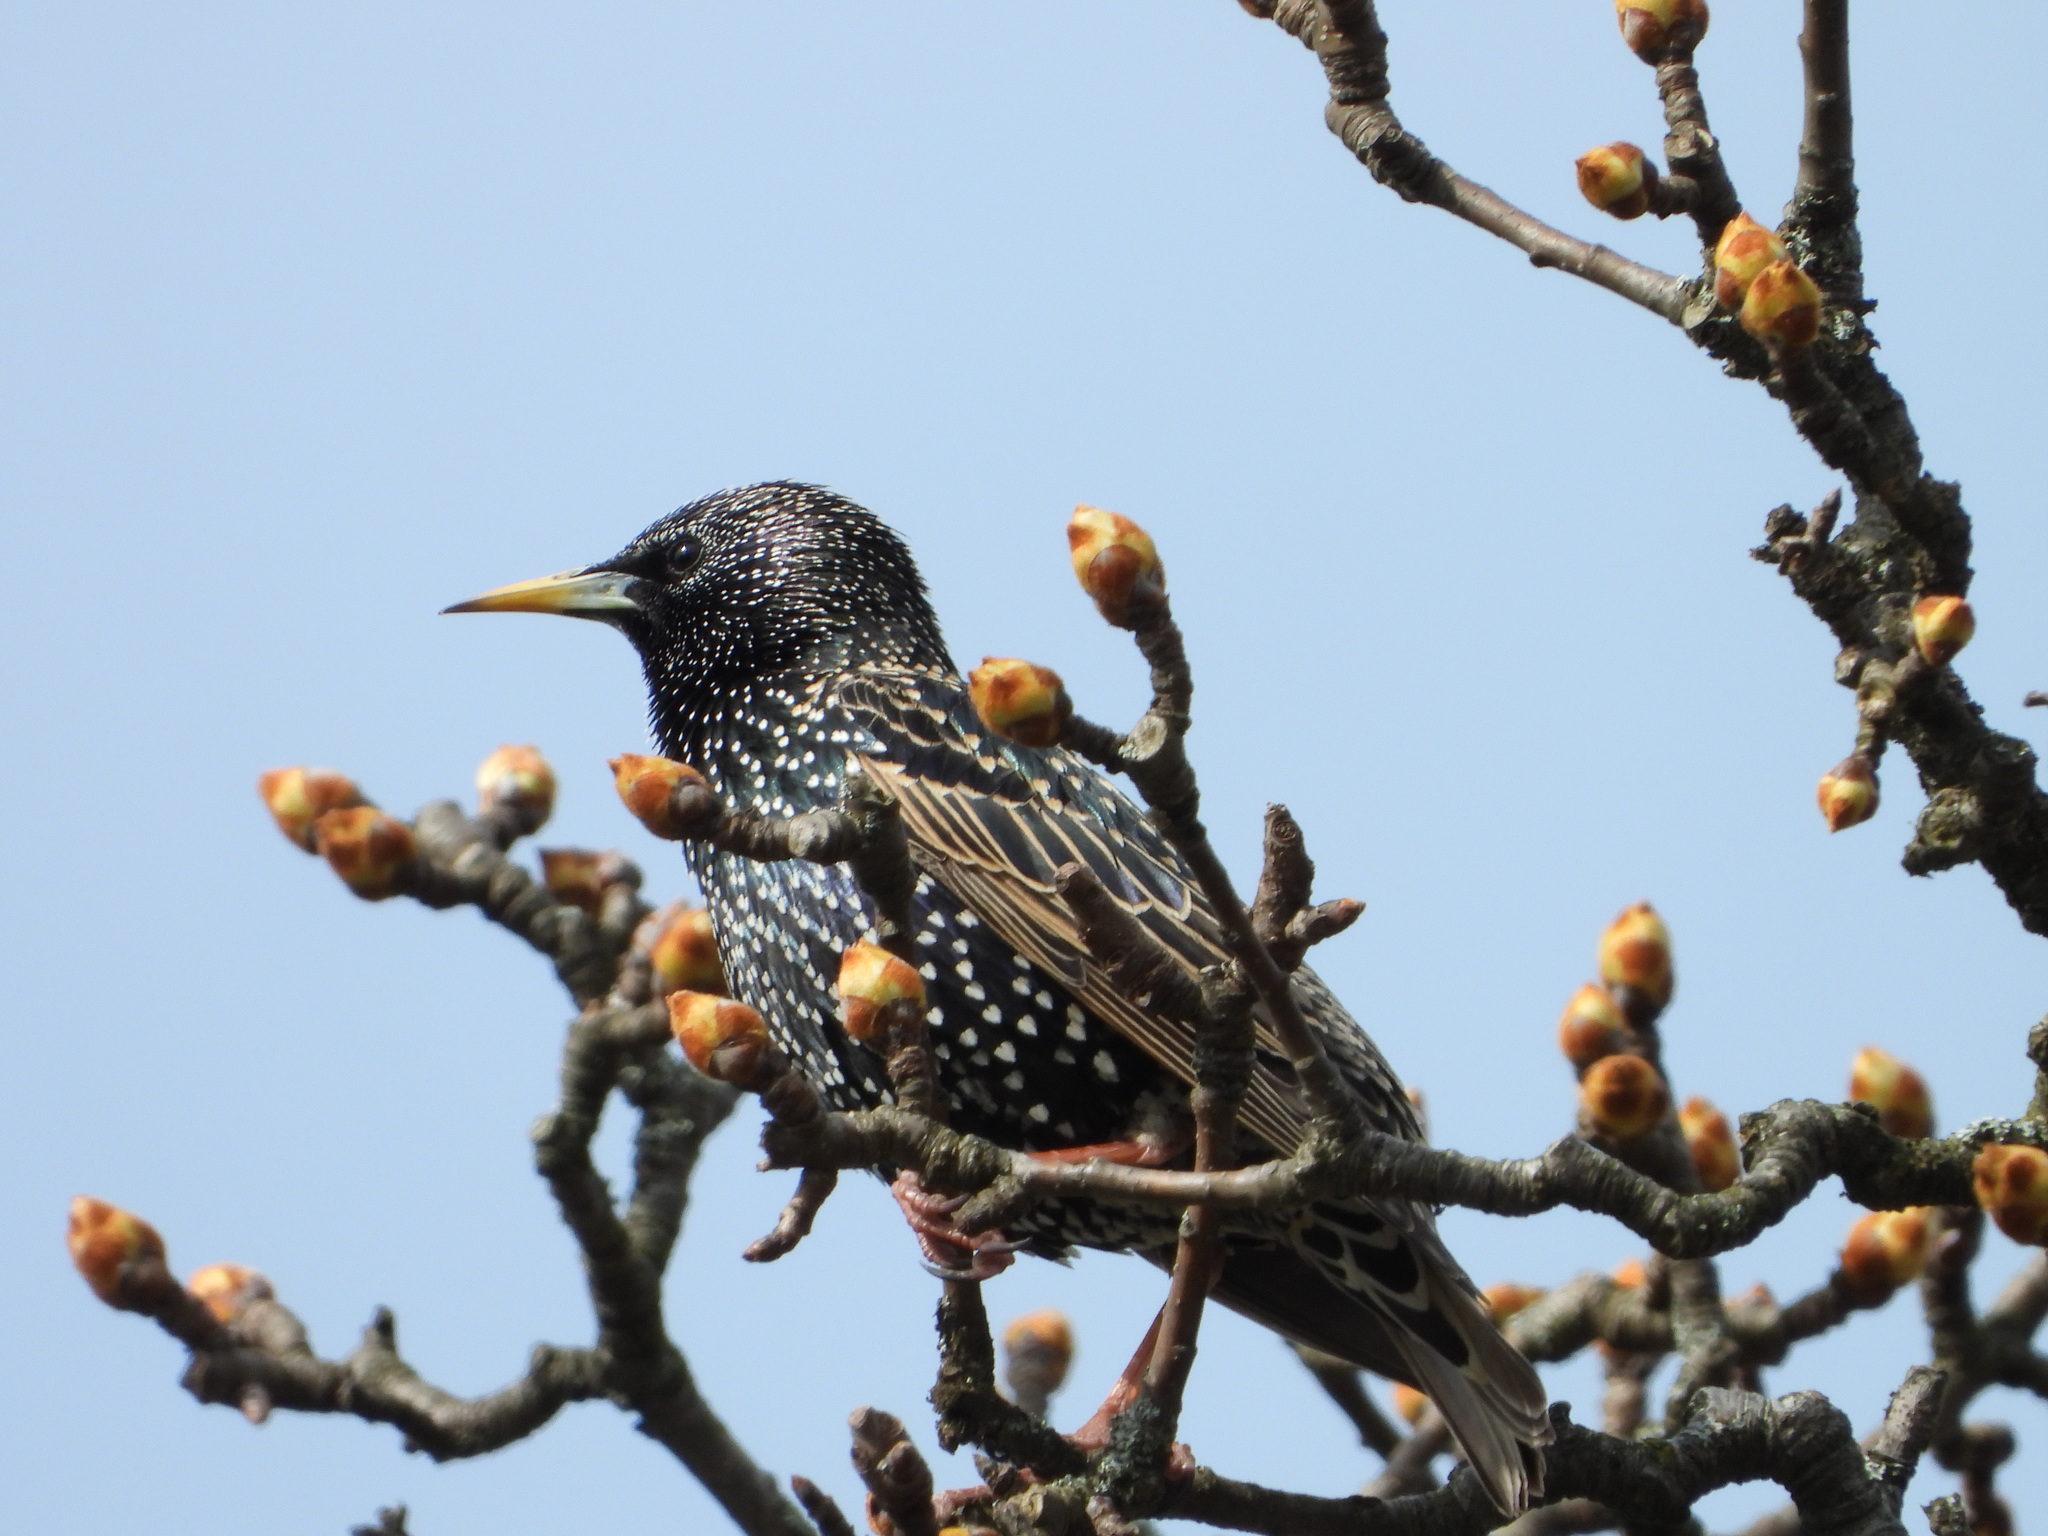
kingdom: Animalia
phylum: Chordata
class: Aves
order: Passeriformes
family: Sturnidae
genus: Sturnus
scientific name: Sturnus vulgaris
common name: Common starling
